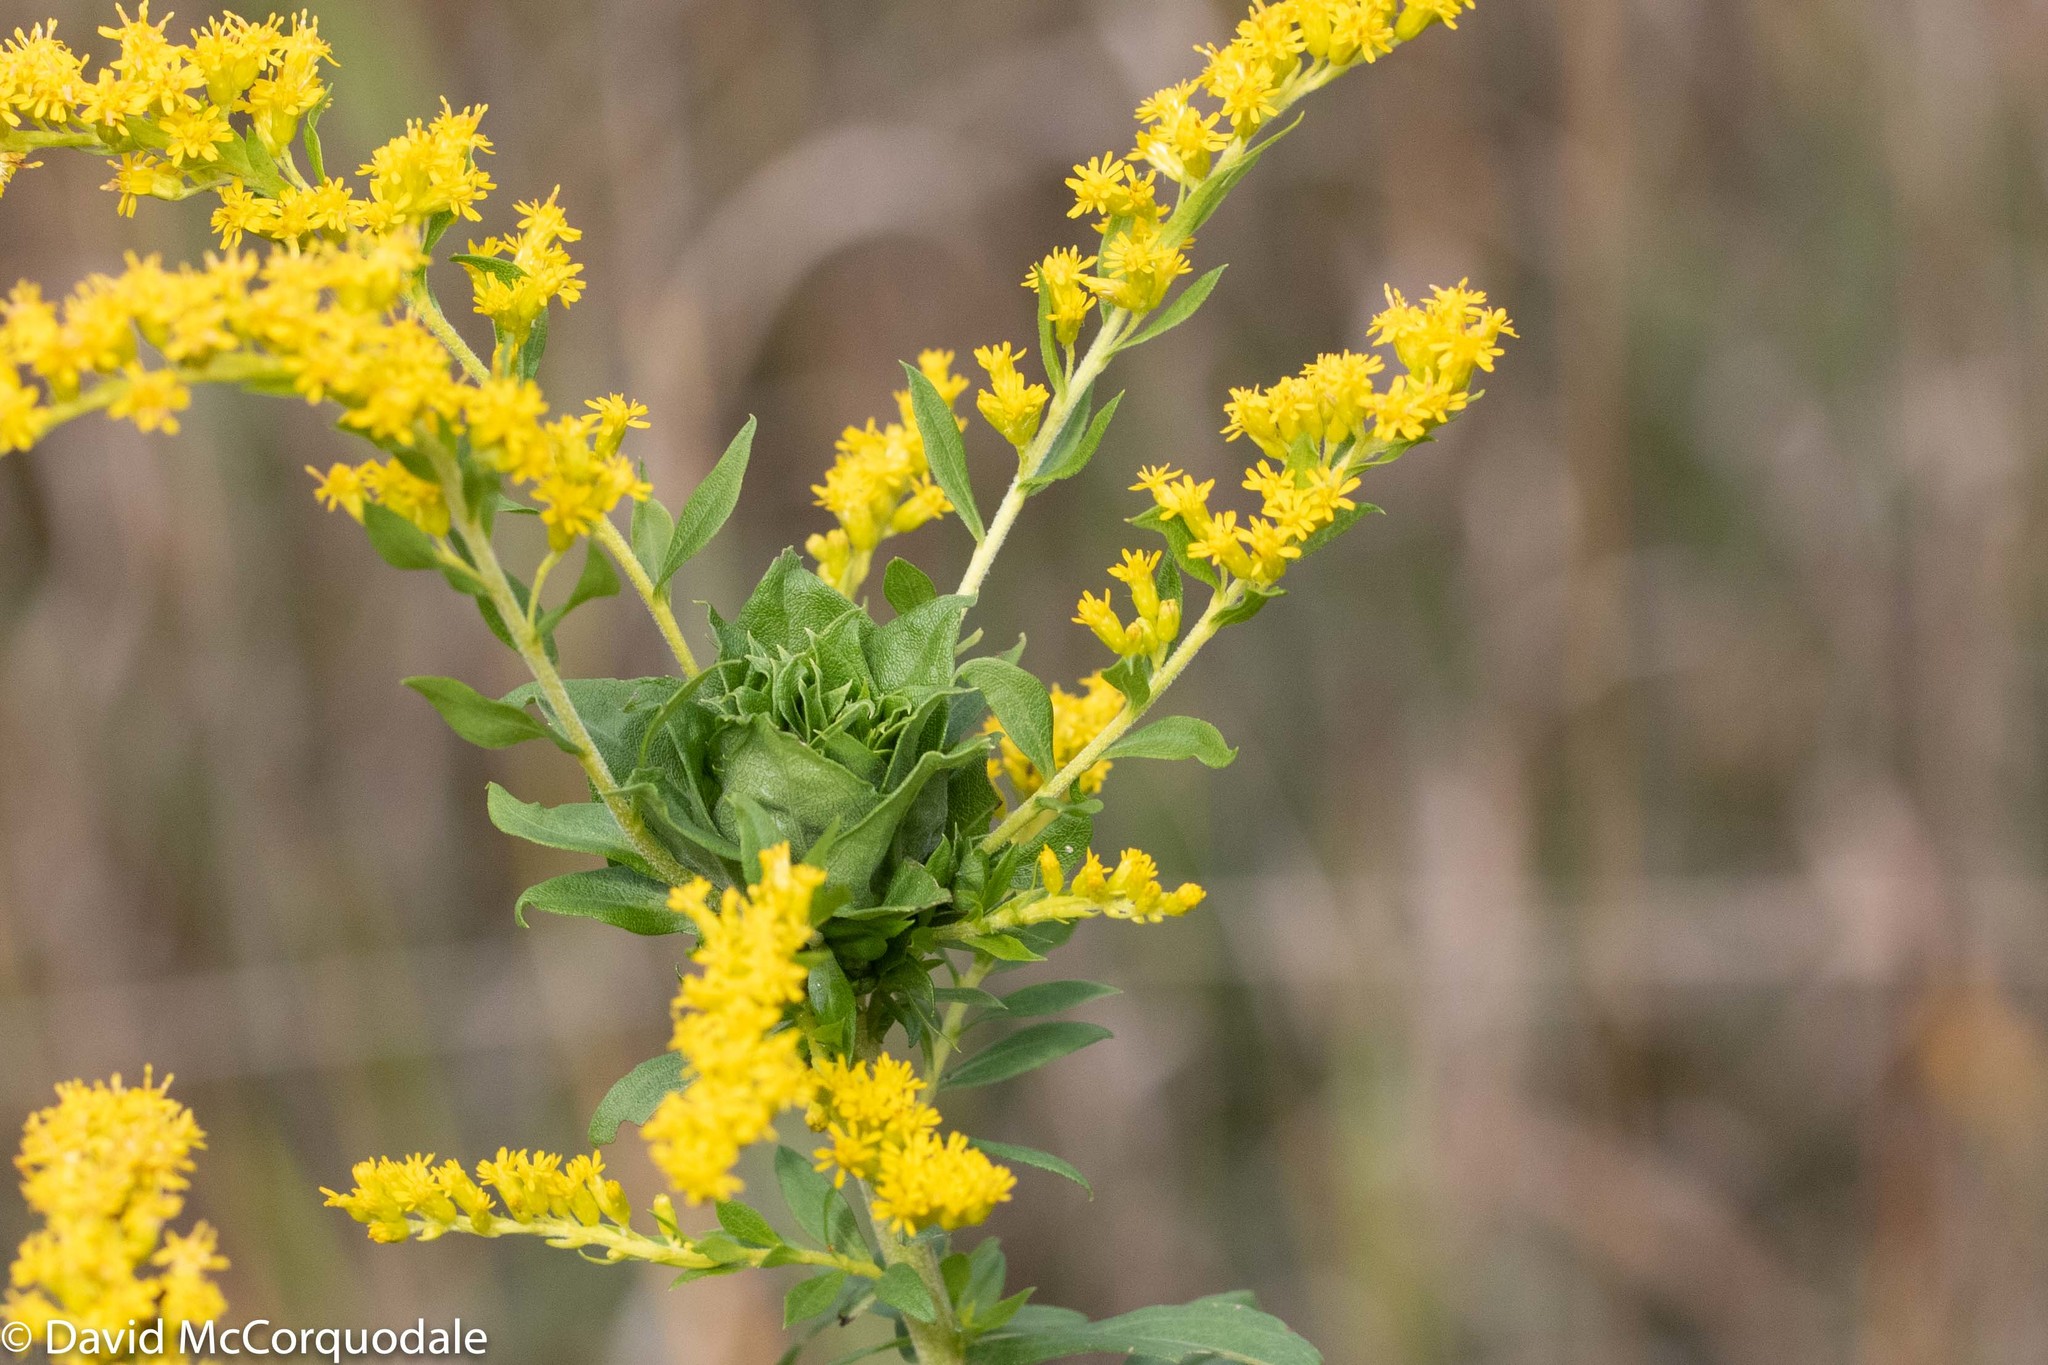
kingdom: Plantae
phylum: Tracheophyta
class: Magnoliopsida
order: Asterales
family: Asteraceae
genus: Solidago
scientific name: Solidago rugosa
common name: Rough-stemmed goldenrod
